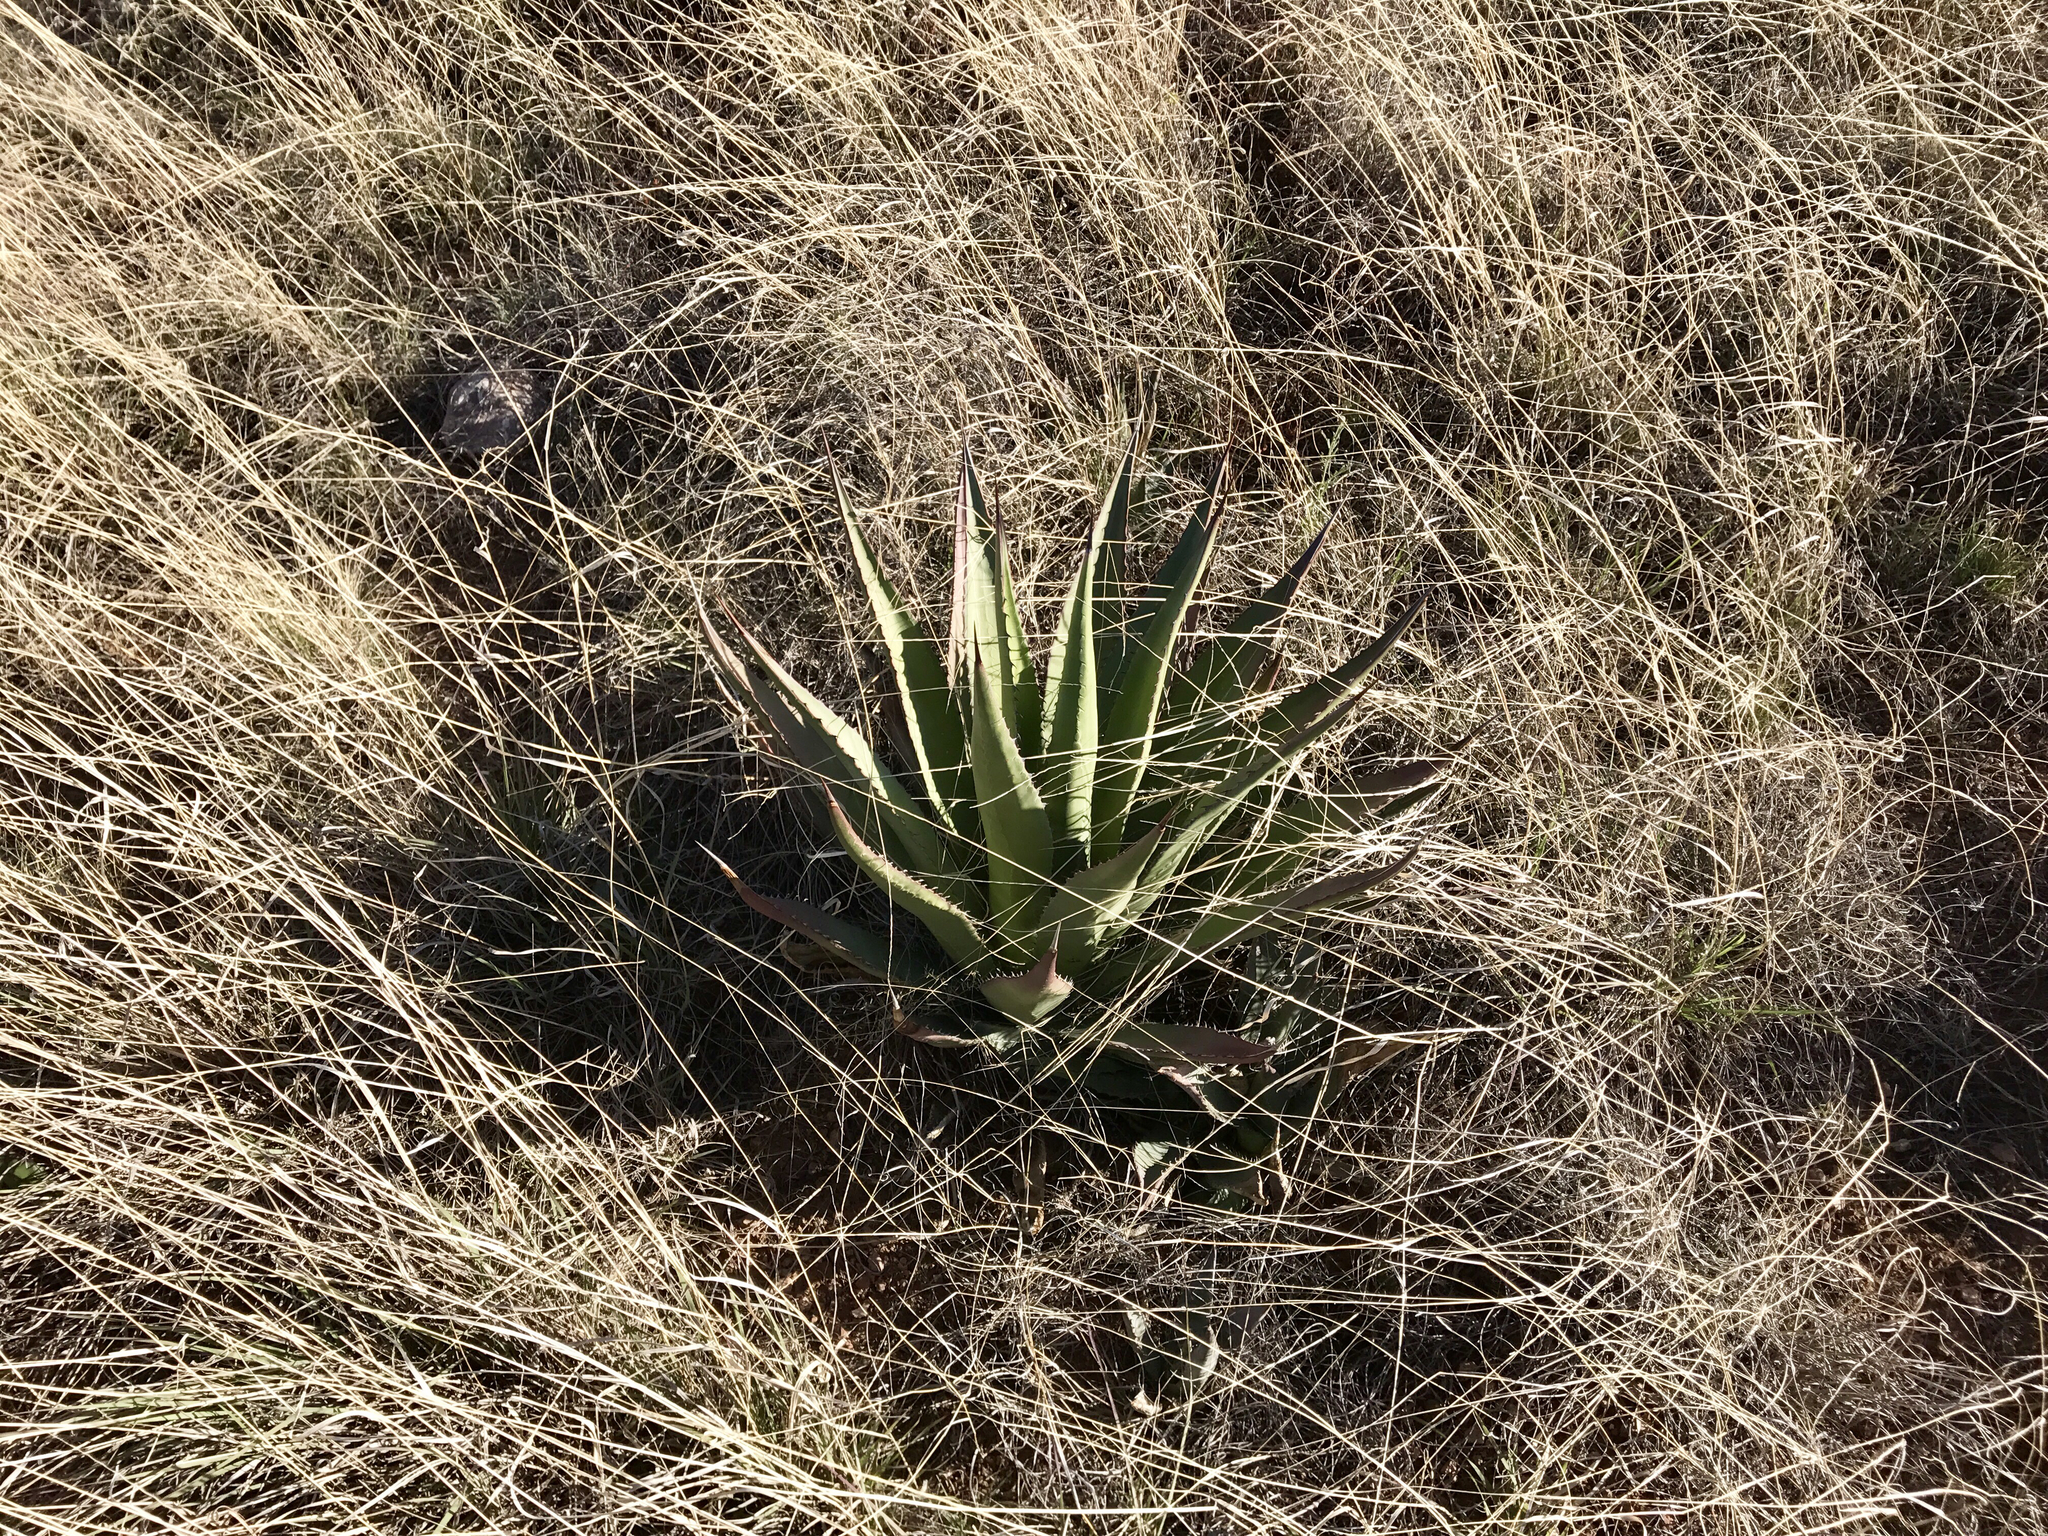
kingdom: Plantae
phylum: Tracheophyta
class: Liliopsida
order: Asparagales
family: Asparagaceae
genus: Agave
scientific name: Agave palmeri
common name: Palmer agave
